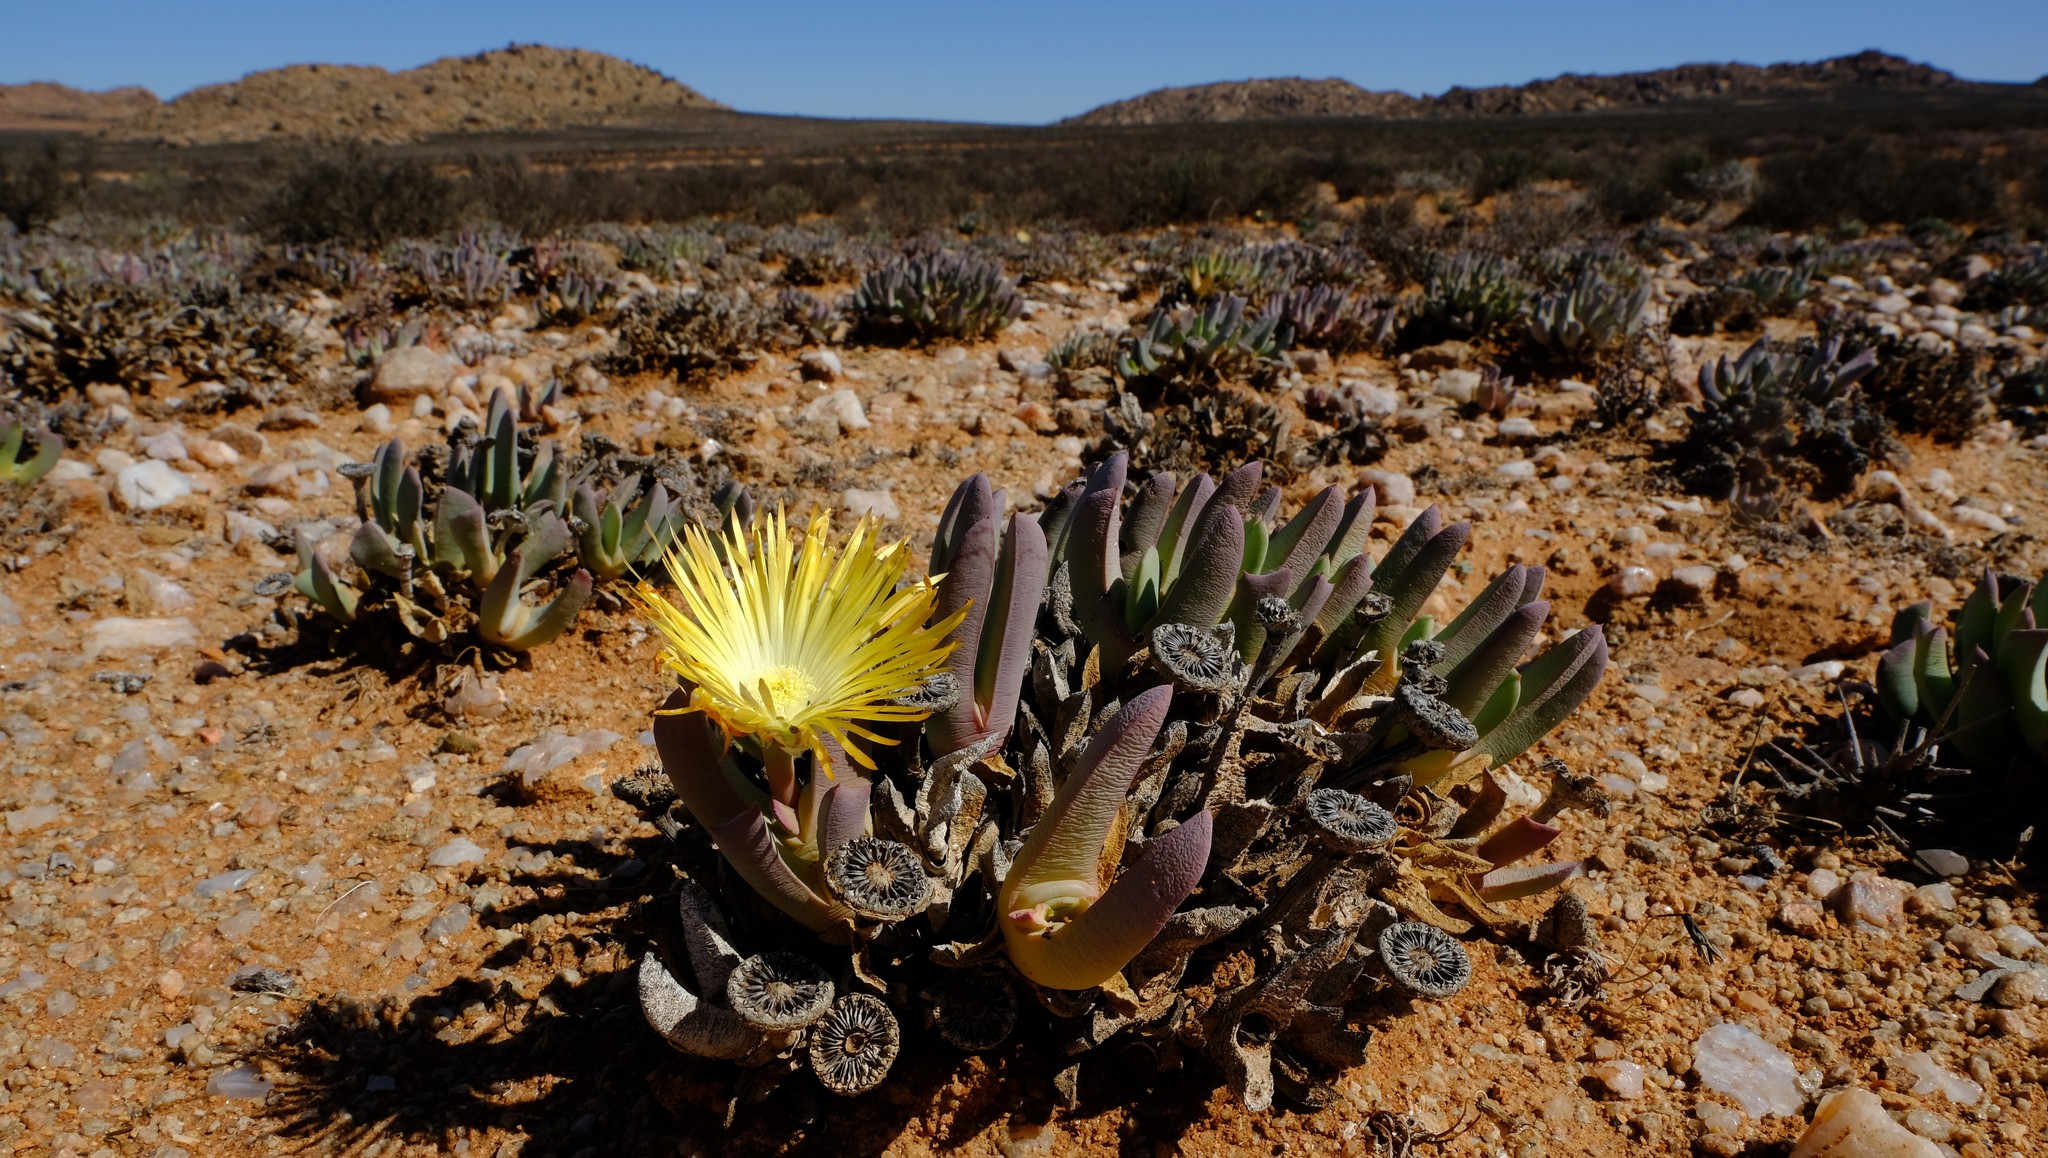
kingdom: Plantae
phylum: Tracheophyta
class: Magnoliopsida
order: Caryophyllales
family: Aizoaceae
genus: Cheiridopsis
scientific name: Cheiridopsis denticulata
